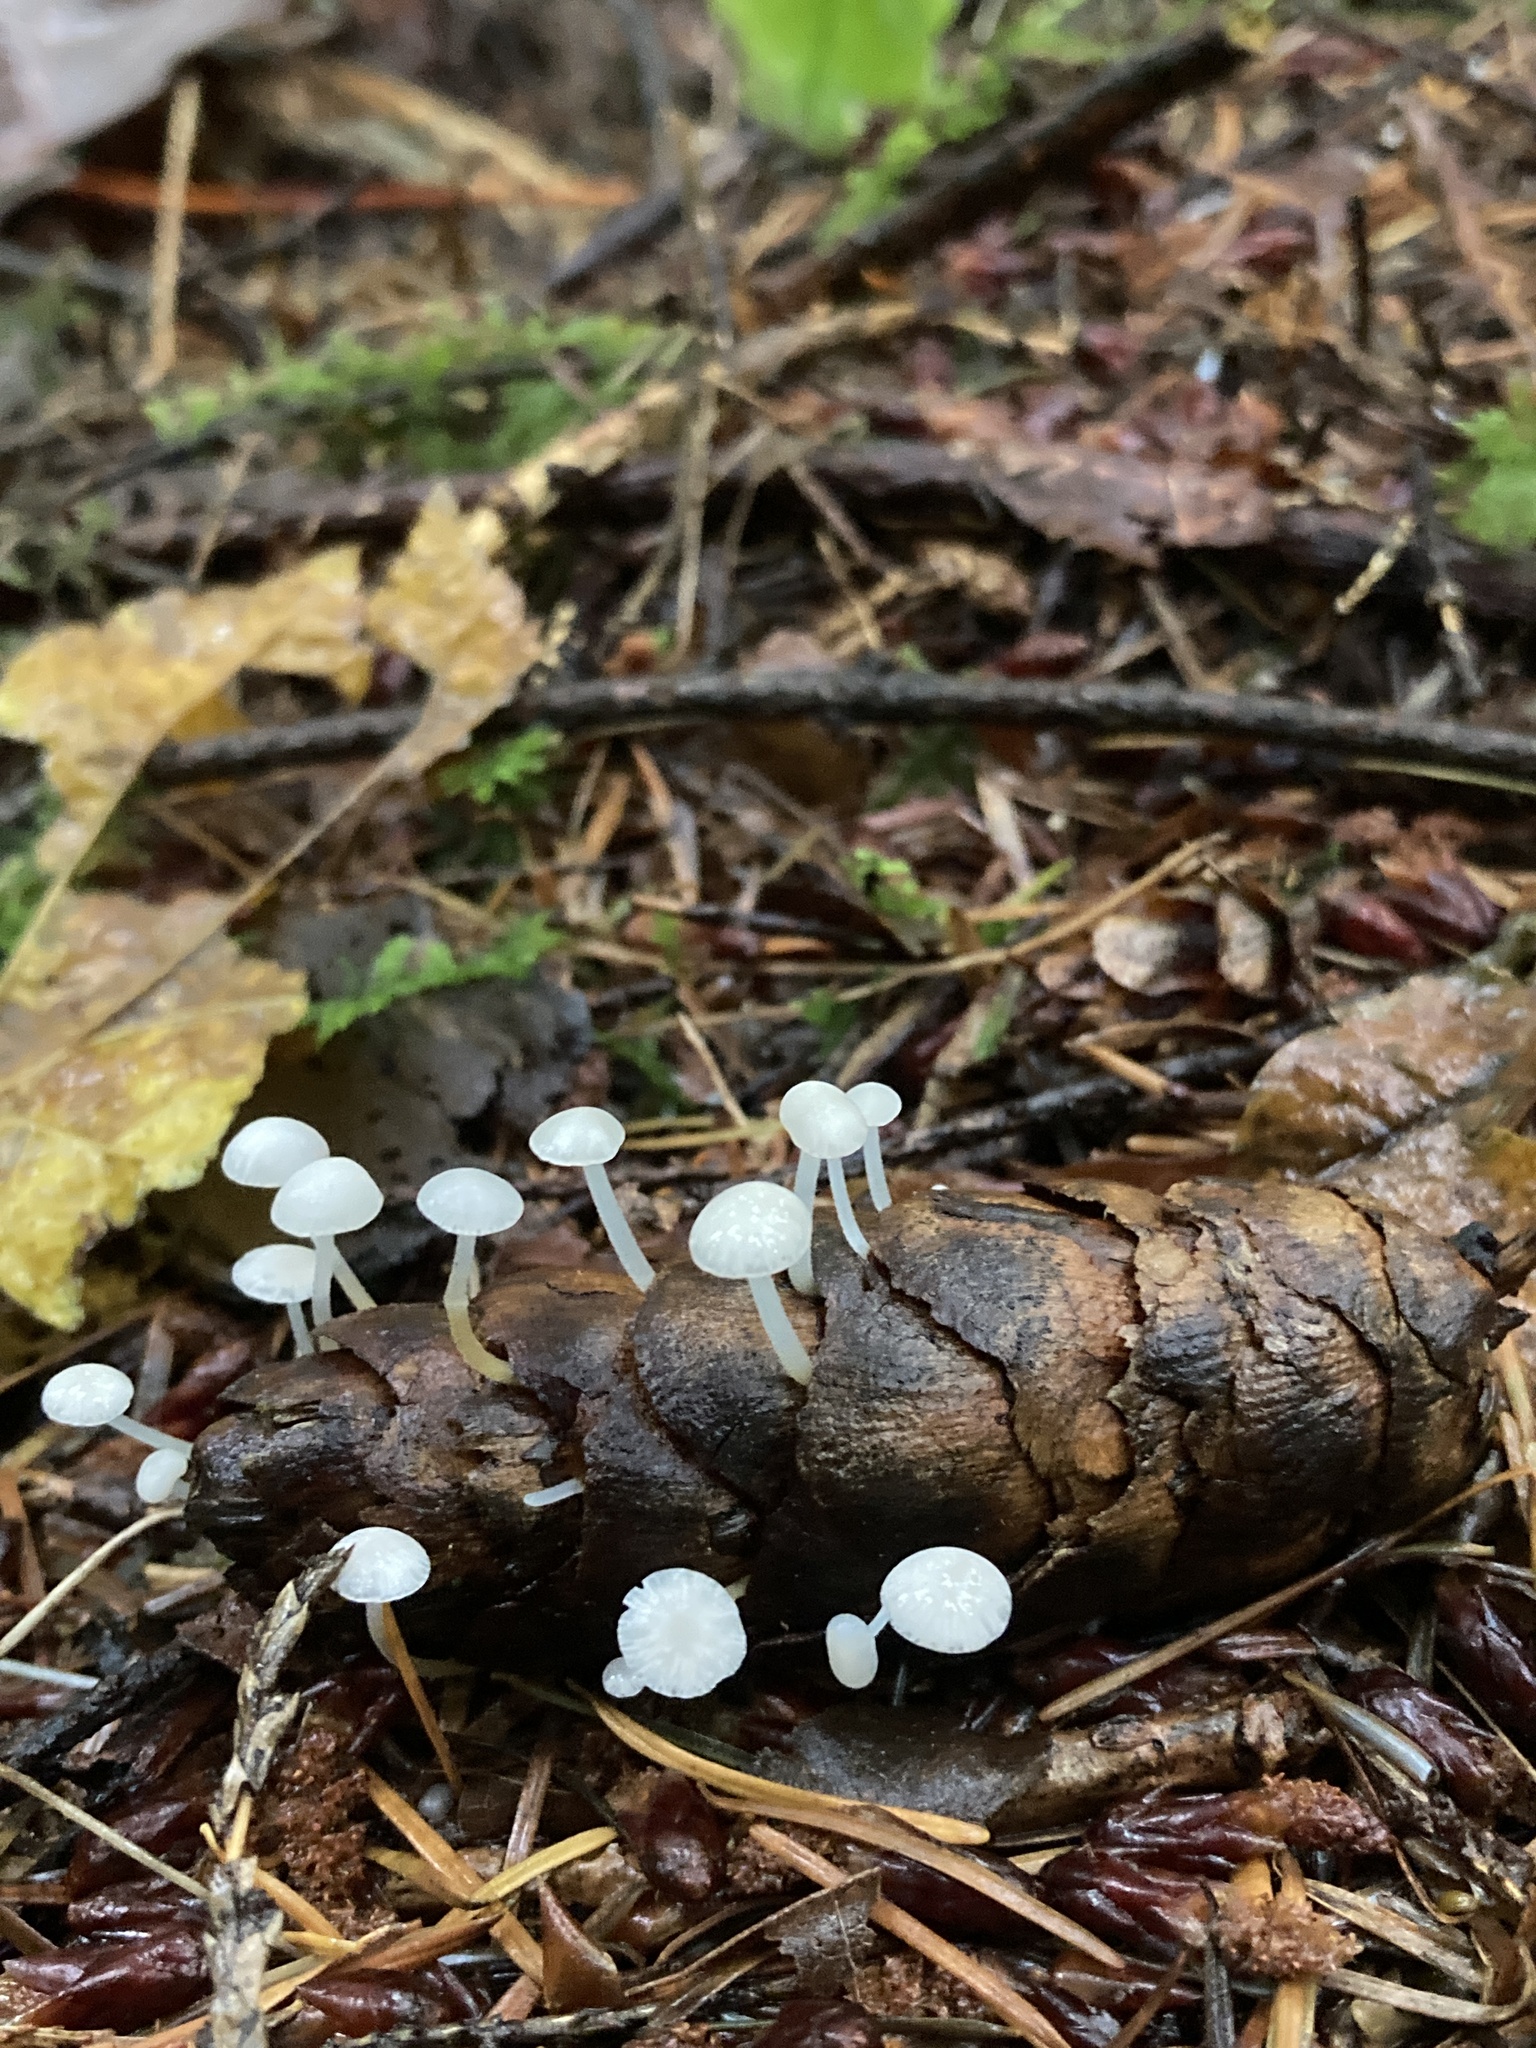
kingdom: Fungi
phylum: Basidiomycota
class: Agaricomycetes
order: Agaricales
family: Physalacriaceae
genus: Strobilurus
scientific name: Strobilurus trullisatus
